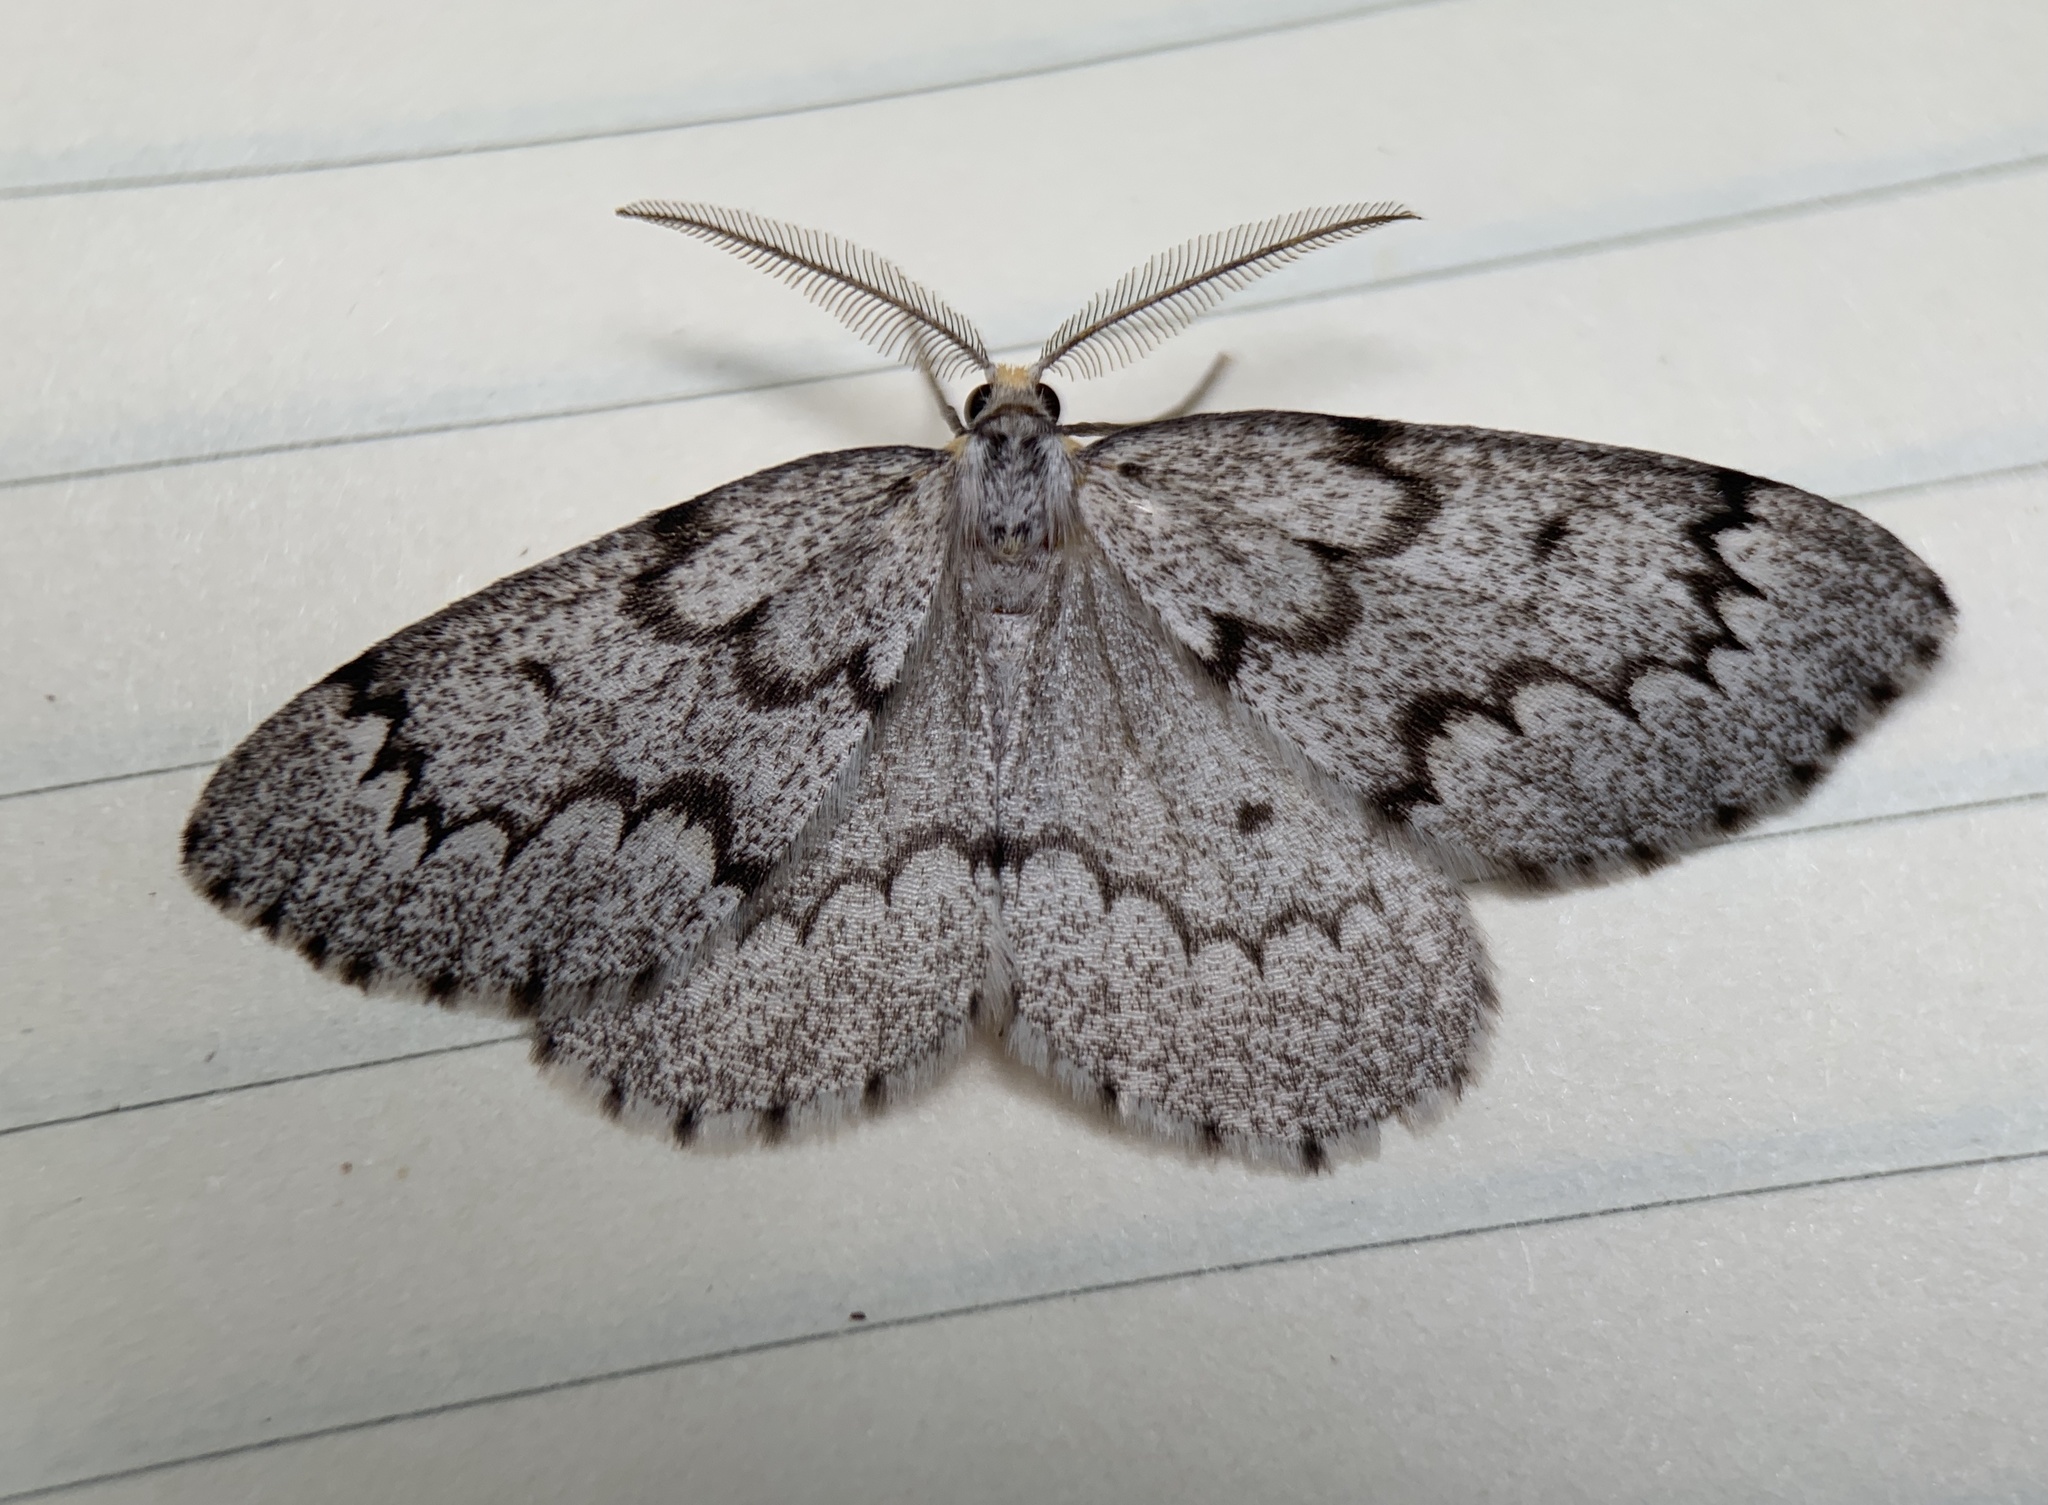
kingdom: Animalia
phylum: Arthropoda
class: Insecta
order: Lepidoptera
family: Geometridae
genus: Nepytia
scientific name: Nepytia canosaria
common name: False hemlock looper
